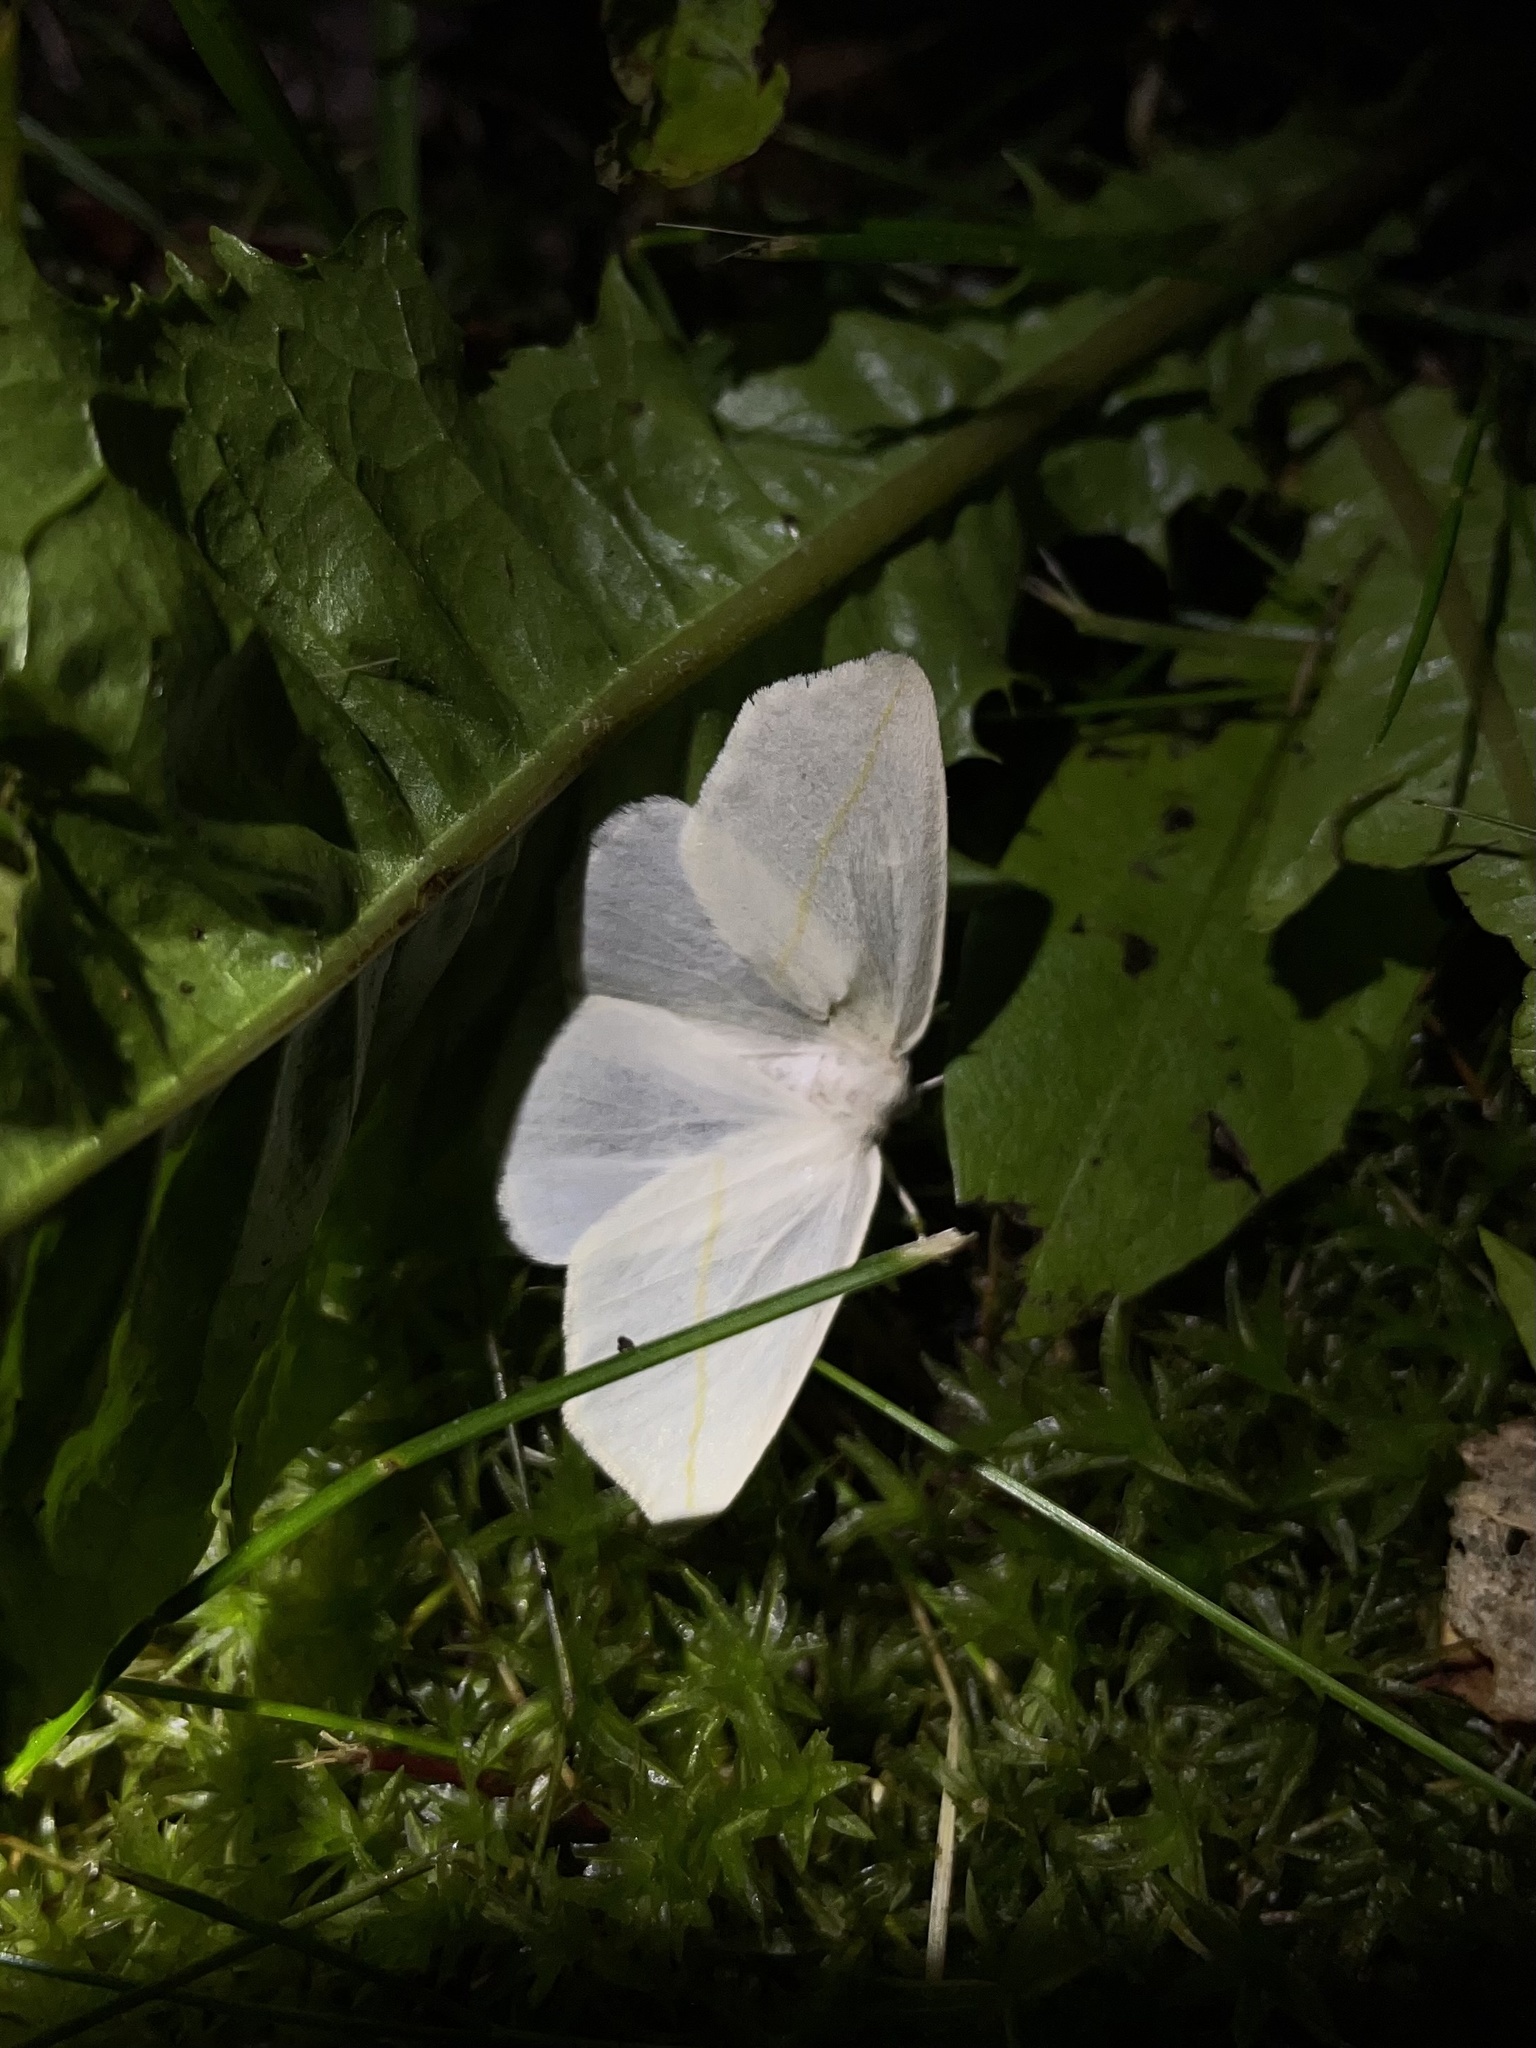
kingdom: Animalia
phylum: Arthropoda
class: Insecta
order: Lepidoptera
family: Geometridae
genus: Tetracis
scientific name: Tetracis cachexiata
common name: White slant-line
